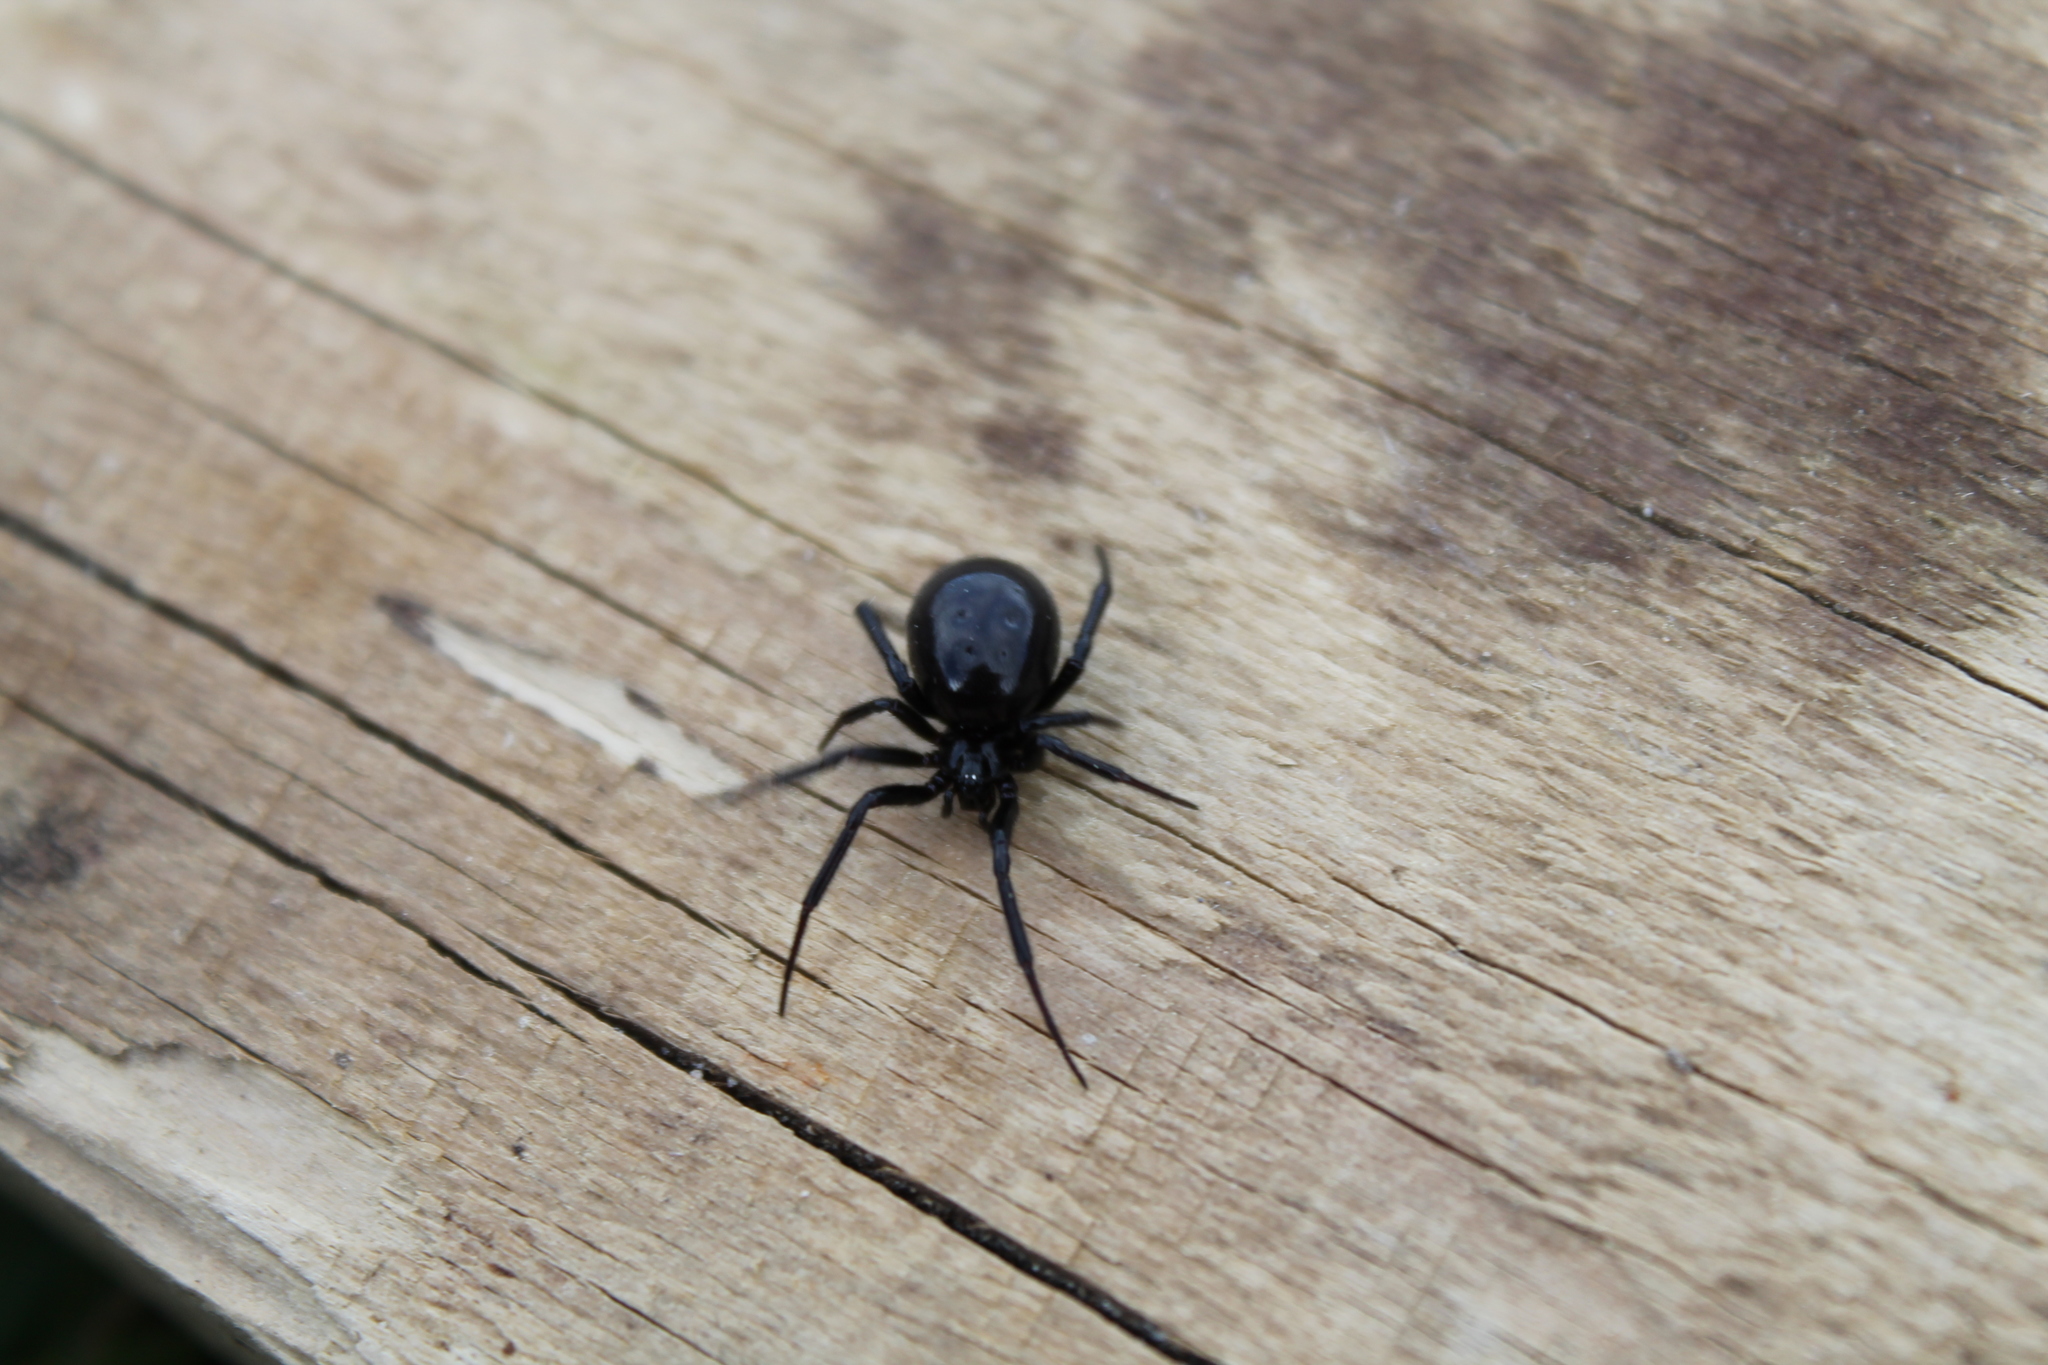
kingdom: Animalia
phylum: Arthropoda
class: Arachnida
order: Araneae
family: Theridiidae
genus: Steatoda
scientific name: Steatoda capensis
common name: Cobweb weaver
